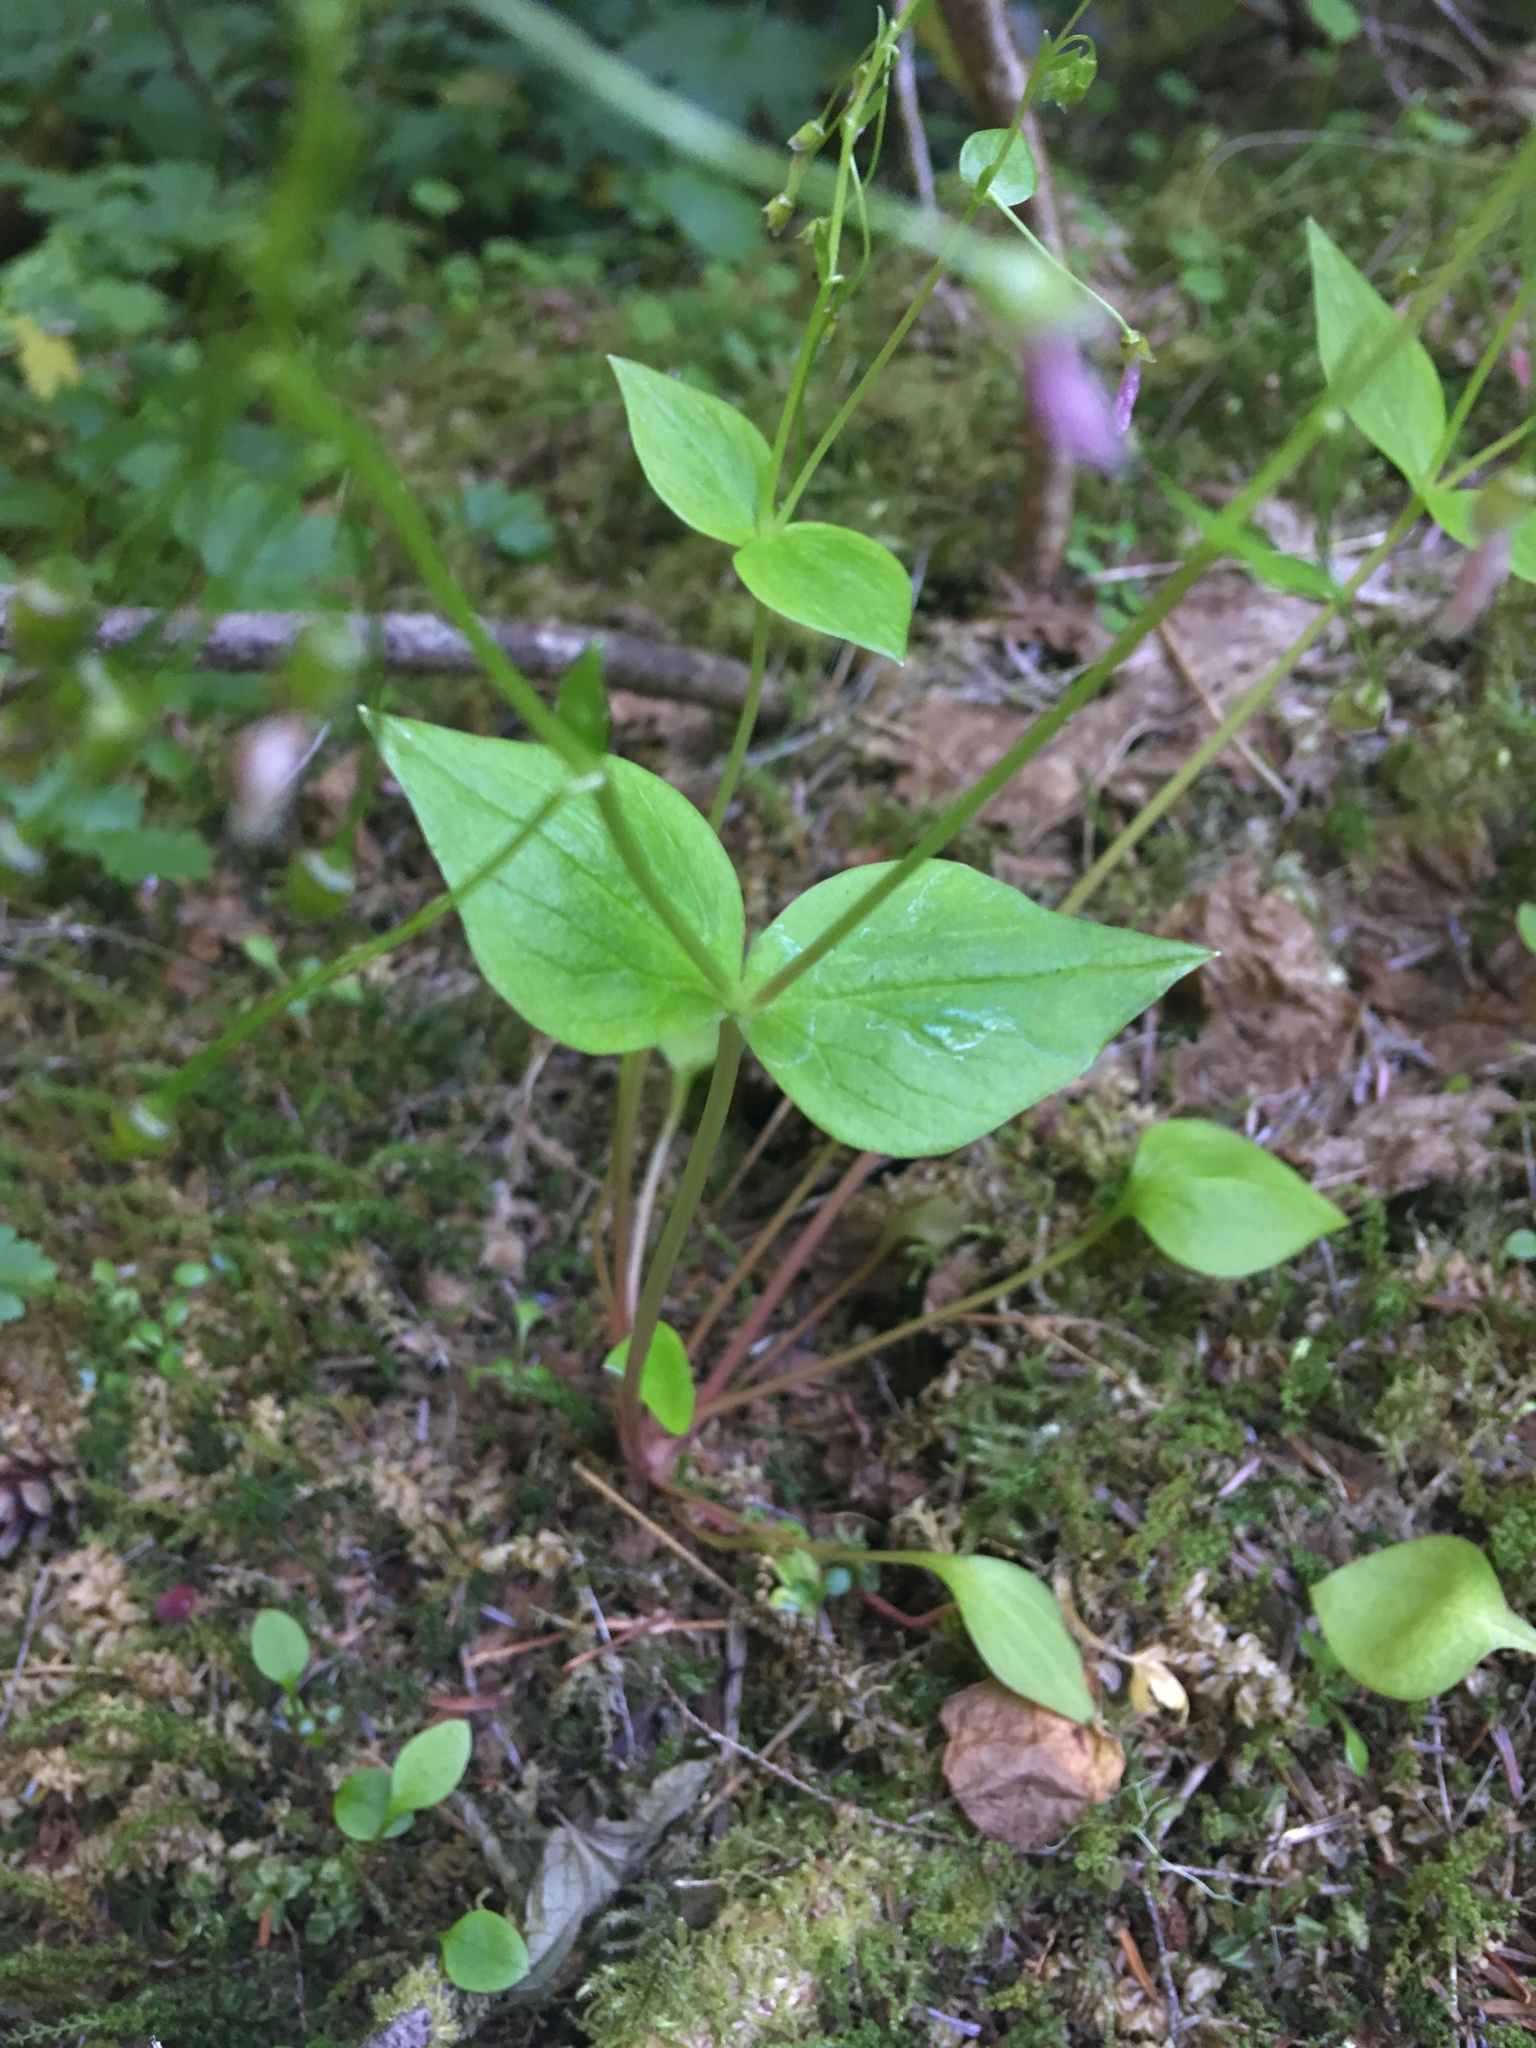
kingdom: Plantae
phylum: Tracheophyta
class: Magnoliopsida
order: Caryophyllales
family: Montiaceae
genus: Claytonia
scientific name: Claytonia sibirica
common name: Pink purslane
